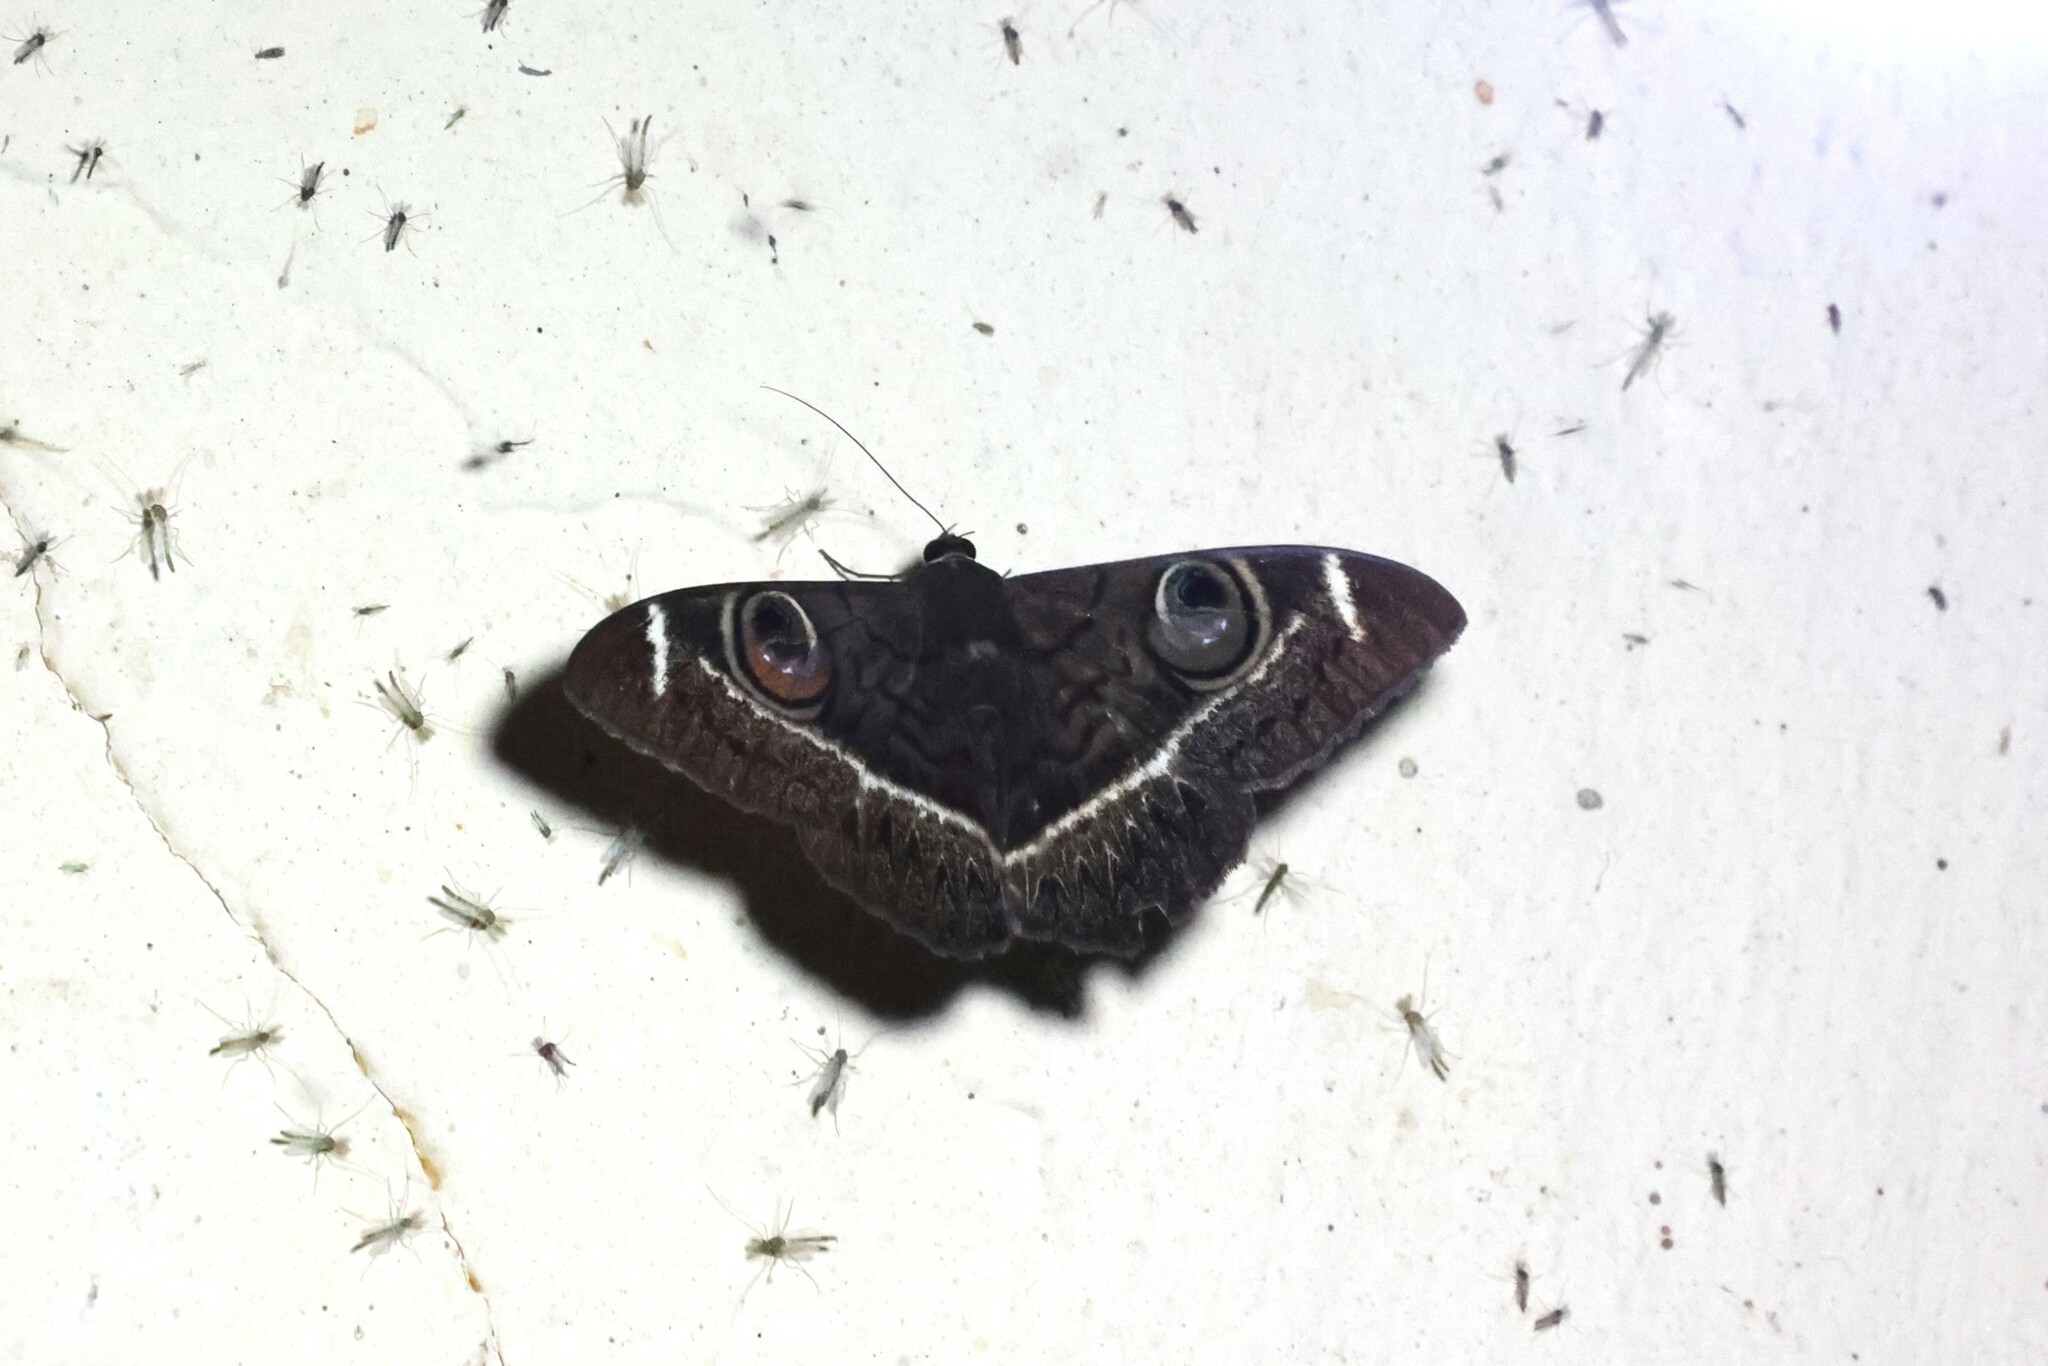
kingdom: Animalia
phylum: Arthropoda
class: Insecta
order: Lepidoptera
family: Erebidae
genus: Cyligramma
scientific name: Cyligramma latona
